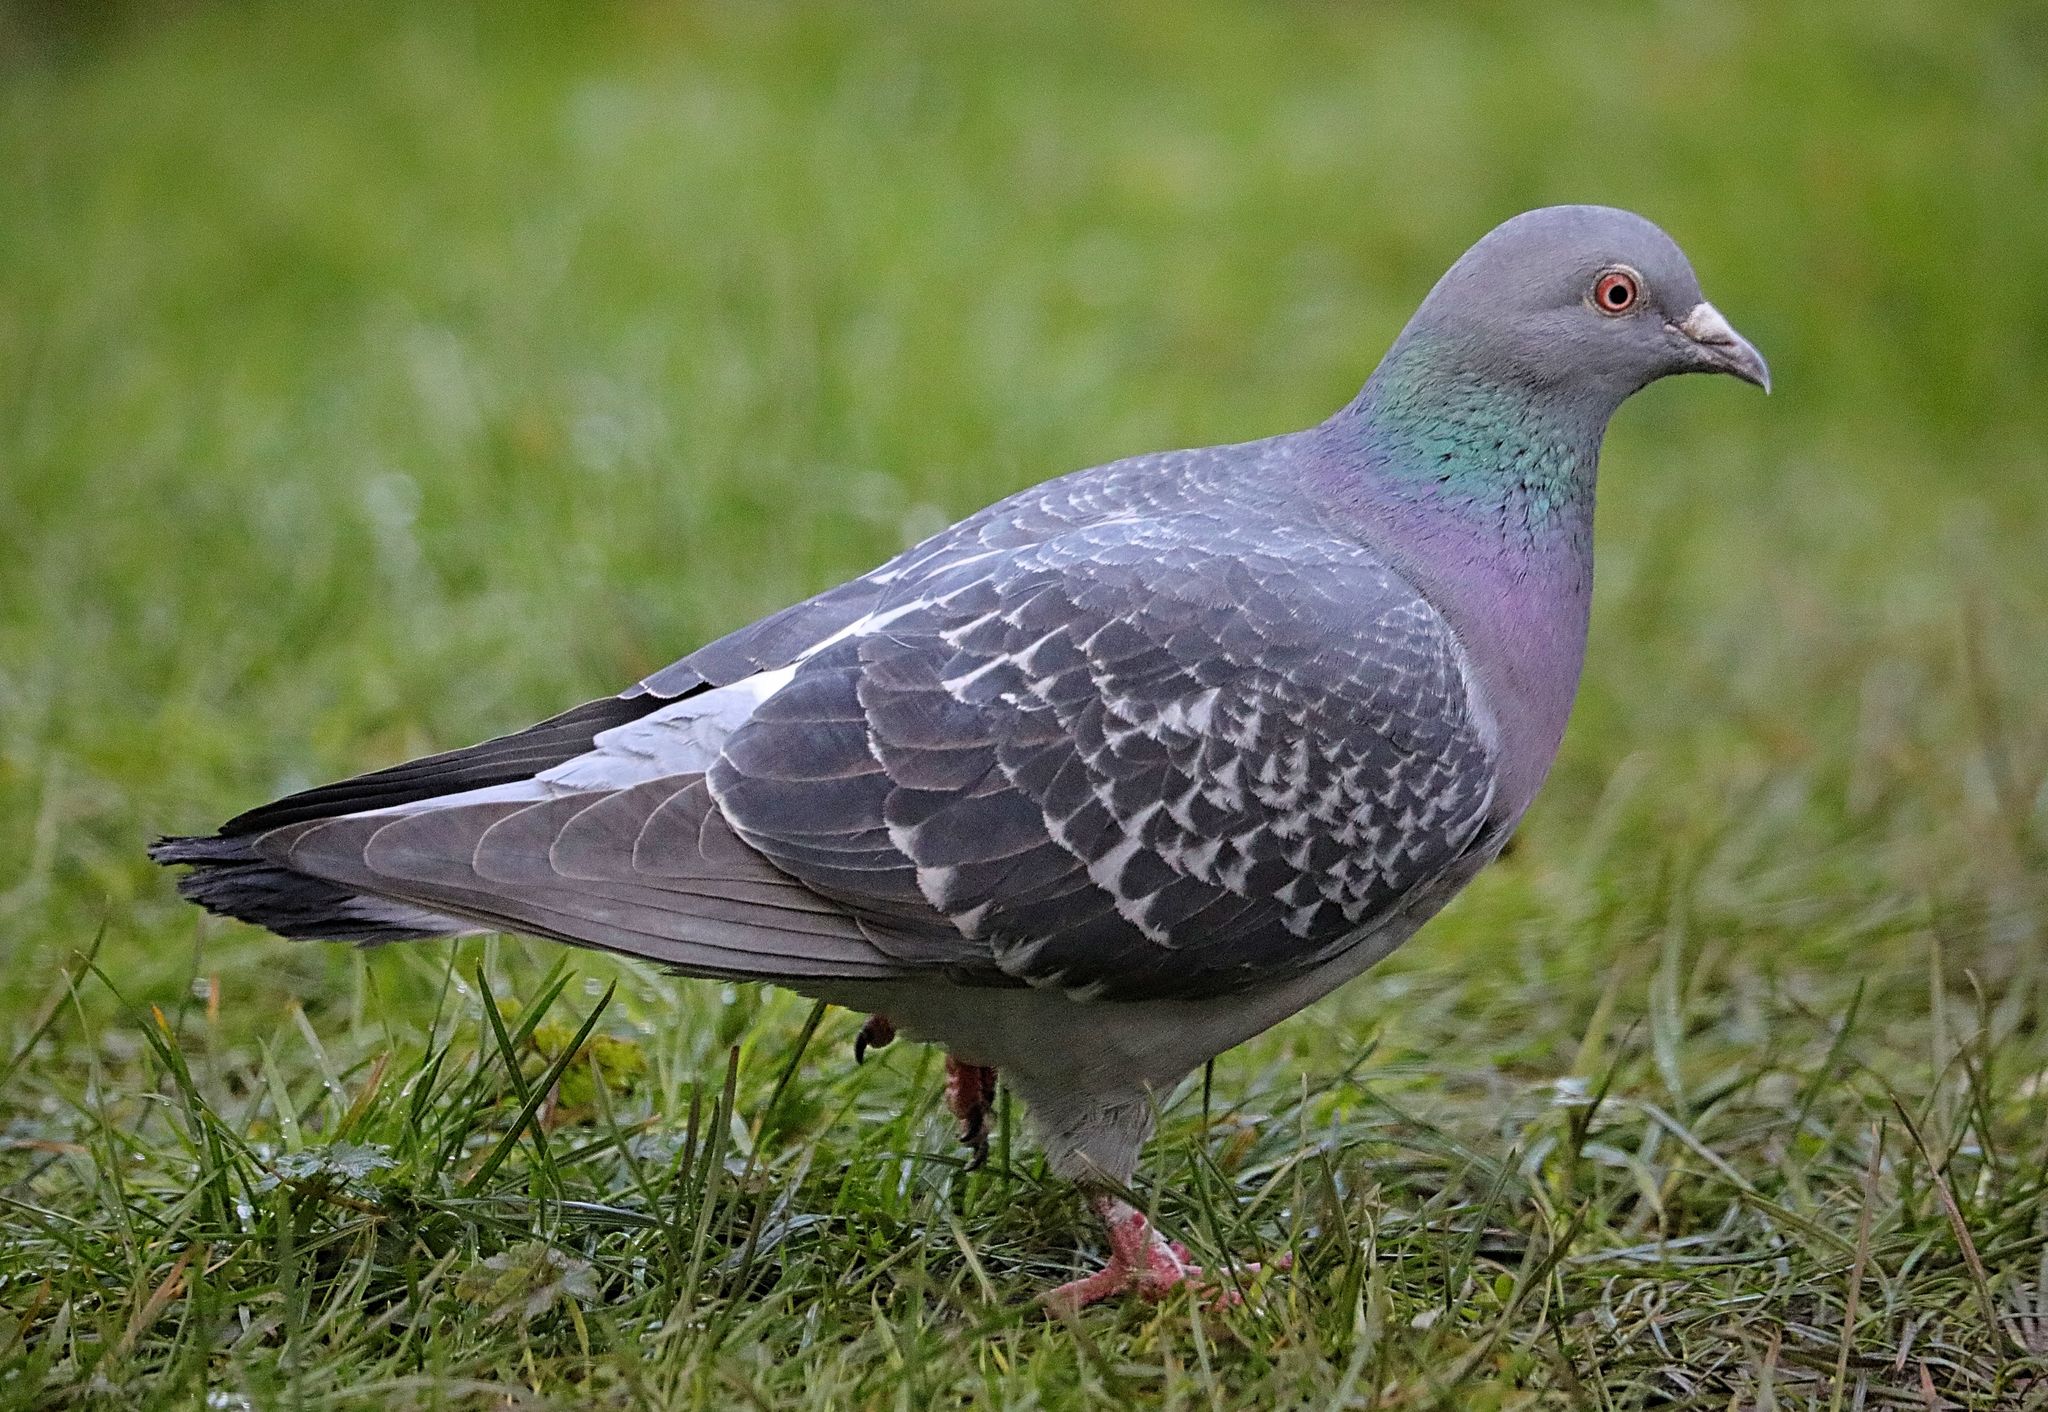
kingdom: Animalia
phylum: Chordata
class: Aves
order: Columbiformes
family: Columbidae
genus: Columba
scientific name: Columba livia
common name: Rock pigeon
